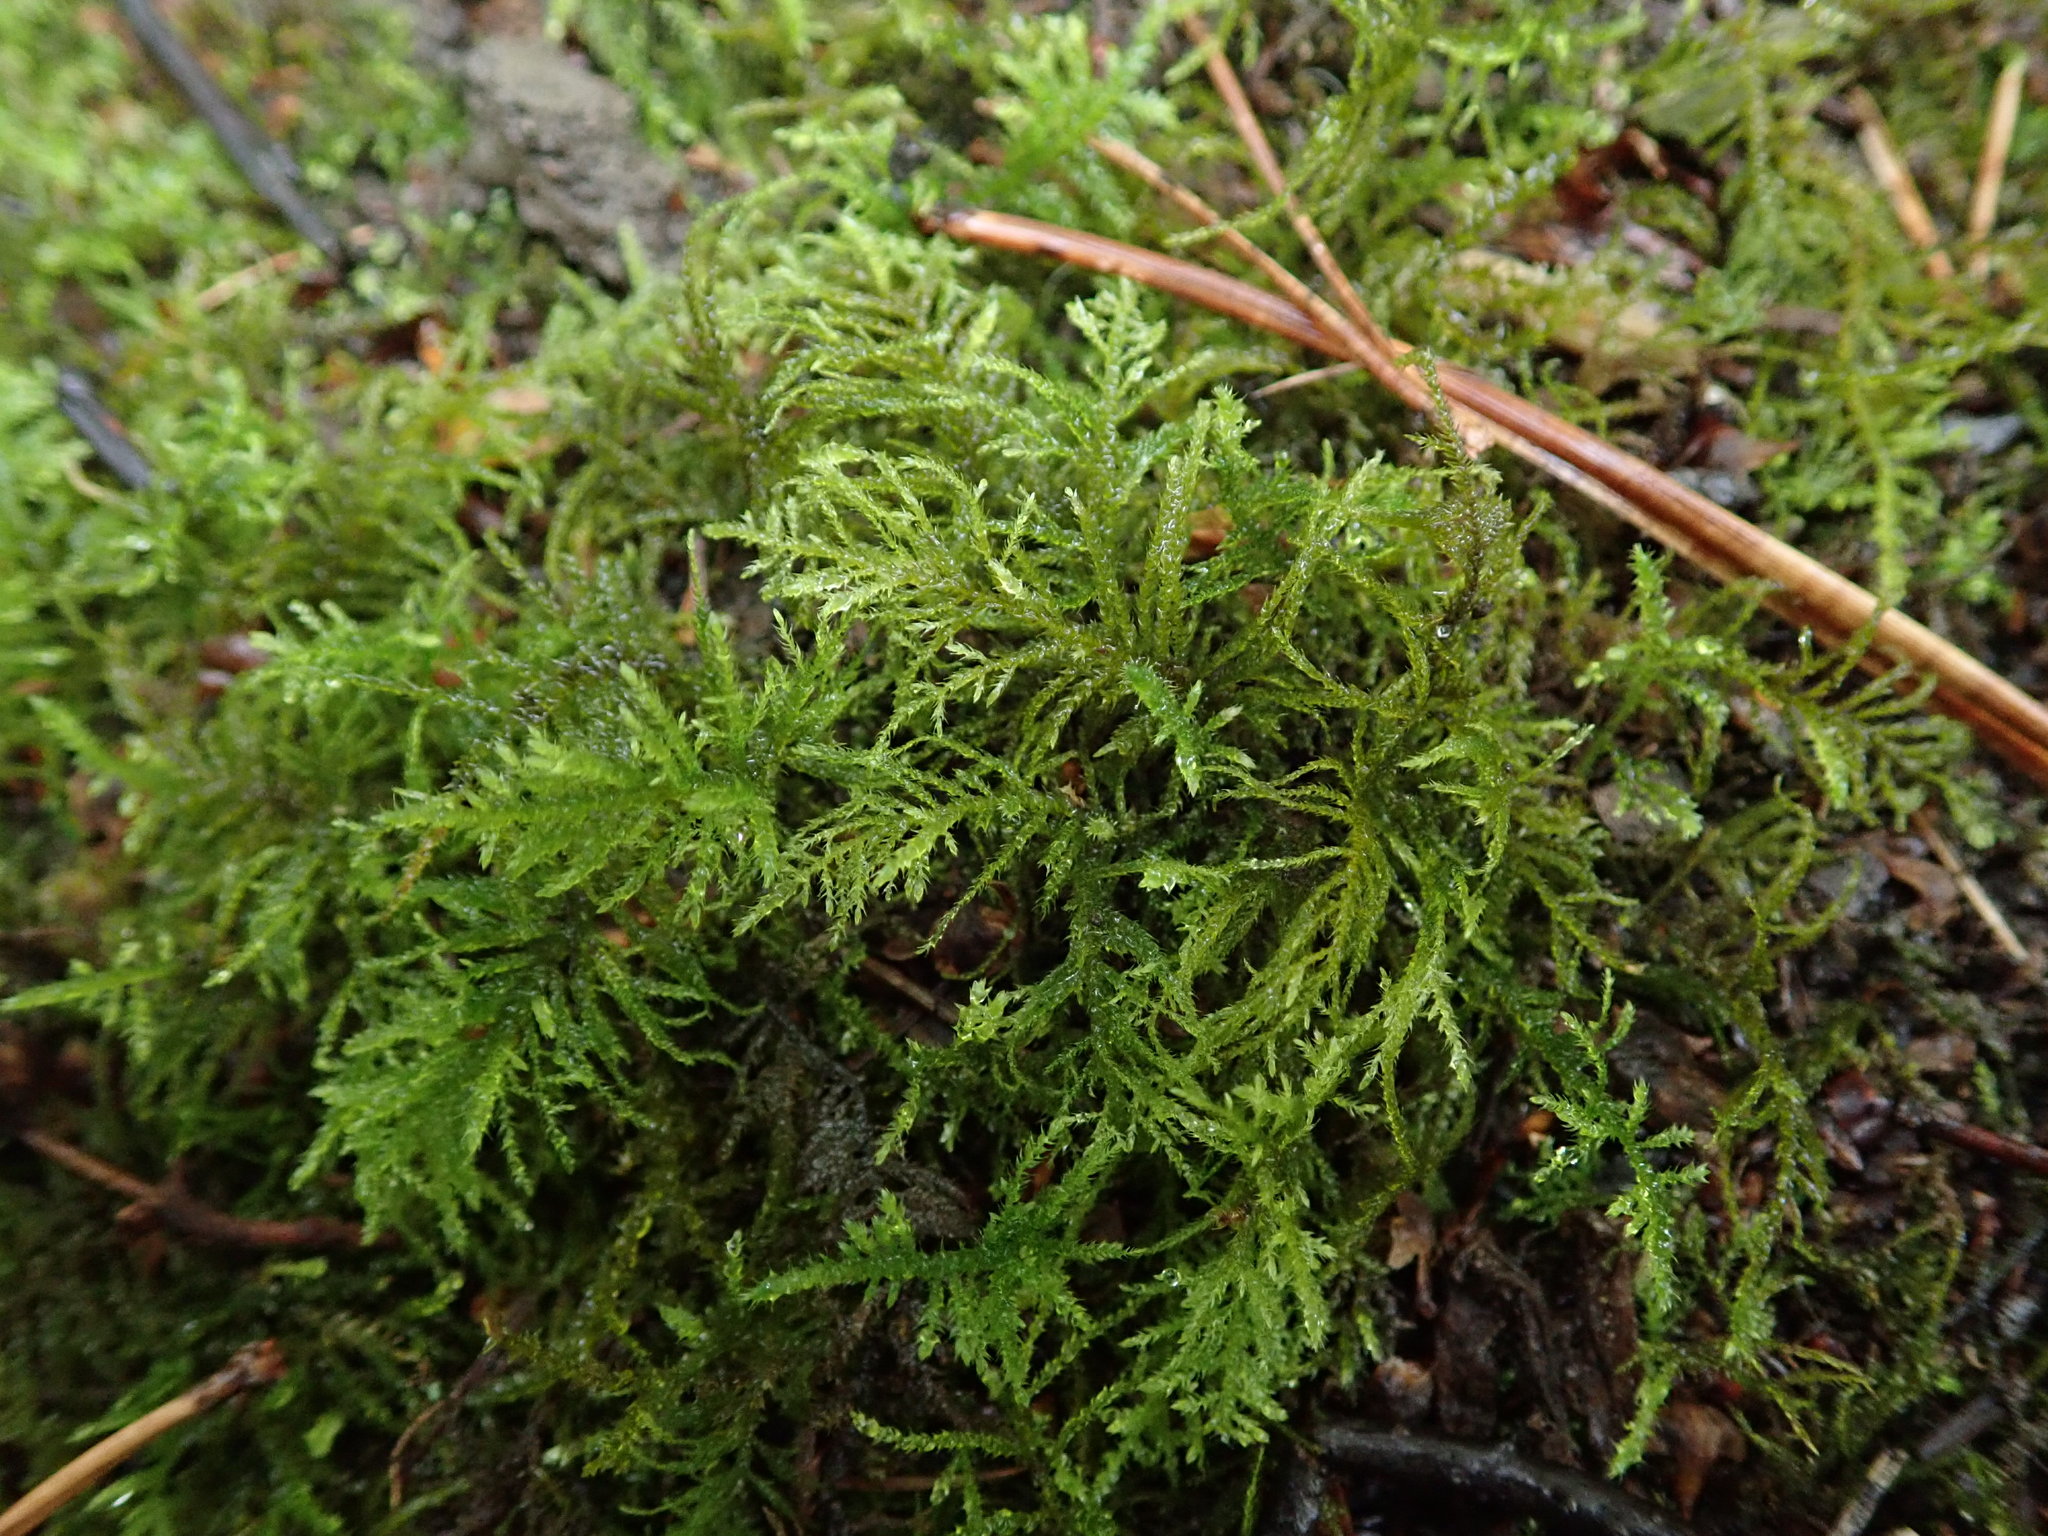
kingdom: Plantae
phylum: Bryophyta
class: Bryopsida
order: Hypnales
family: Brachytheciaceae
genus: Kindbergia
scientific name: Kindbergia praelonga
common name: Slender beaked moss
